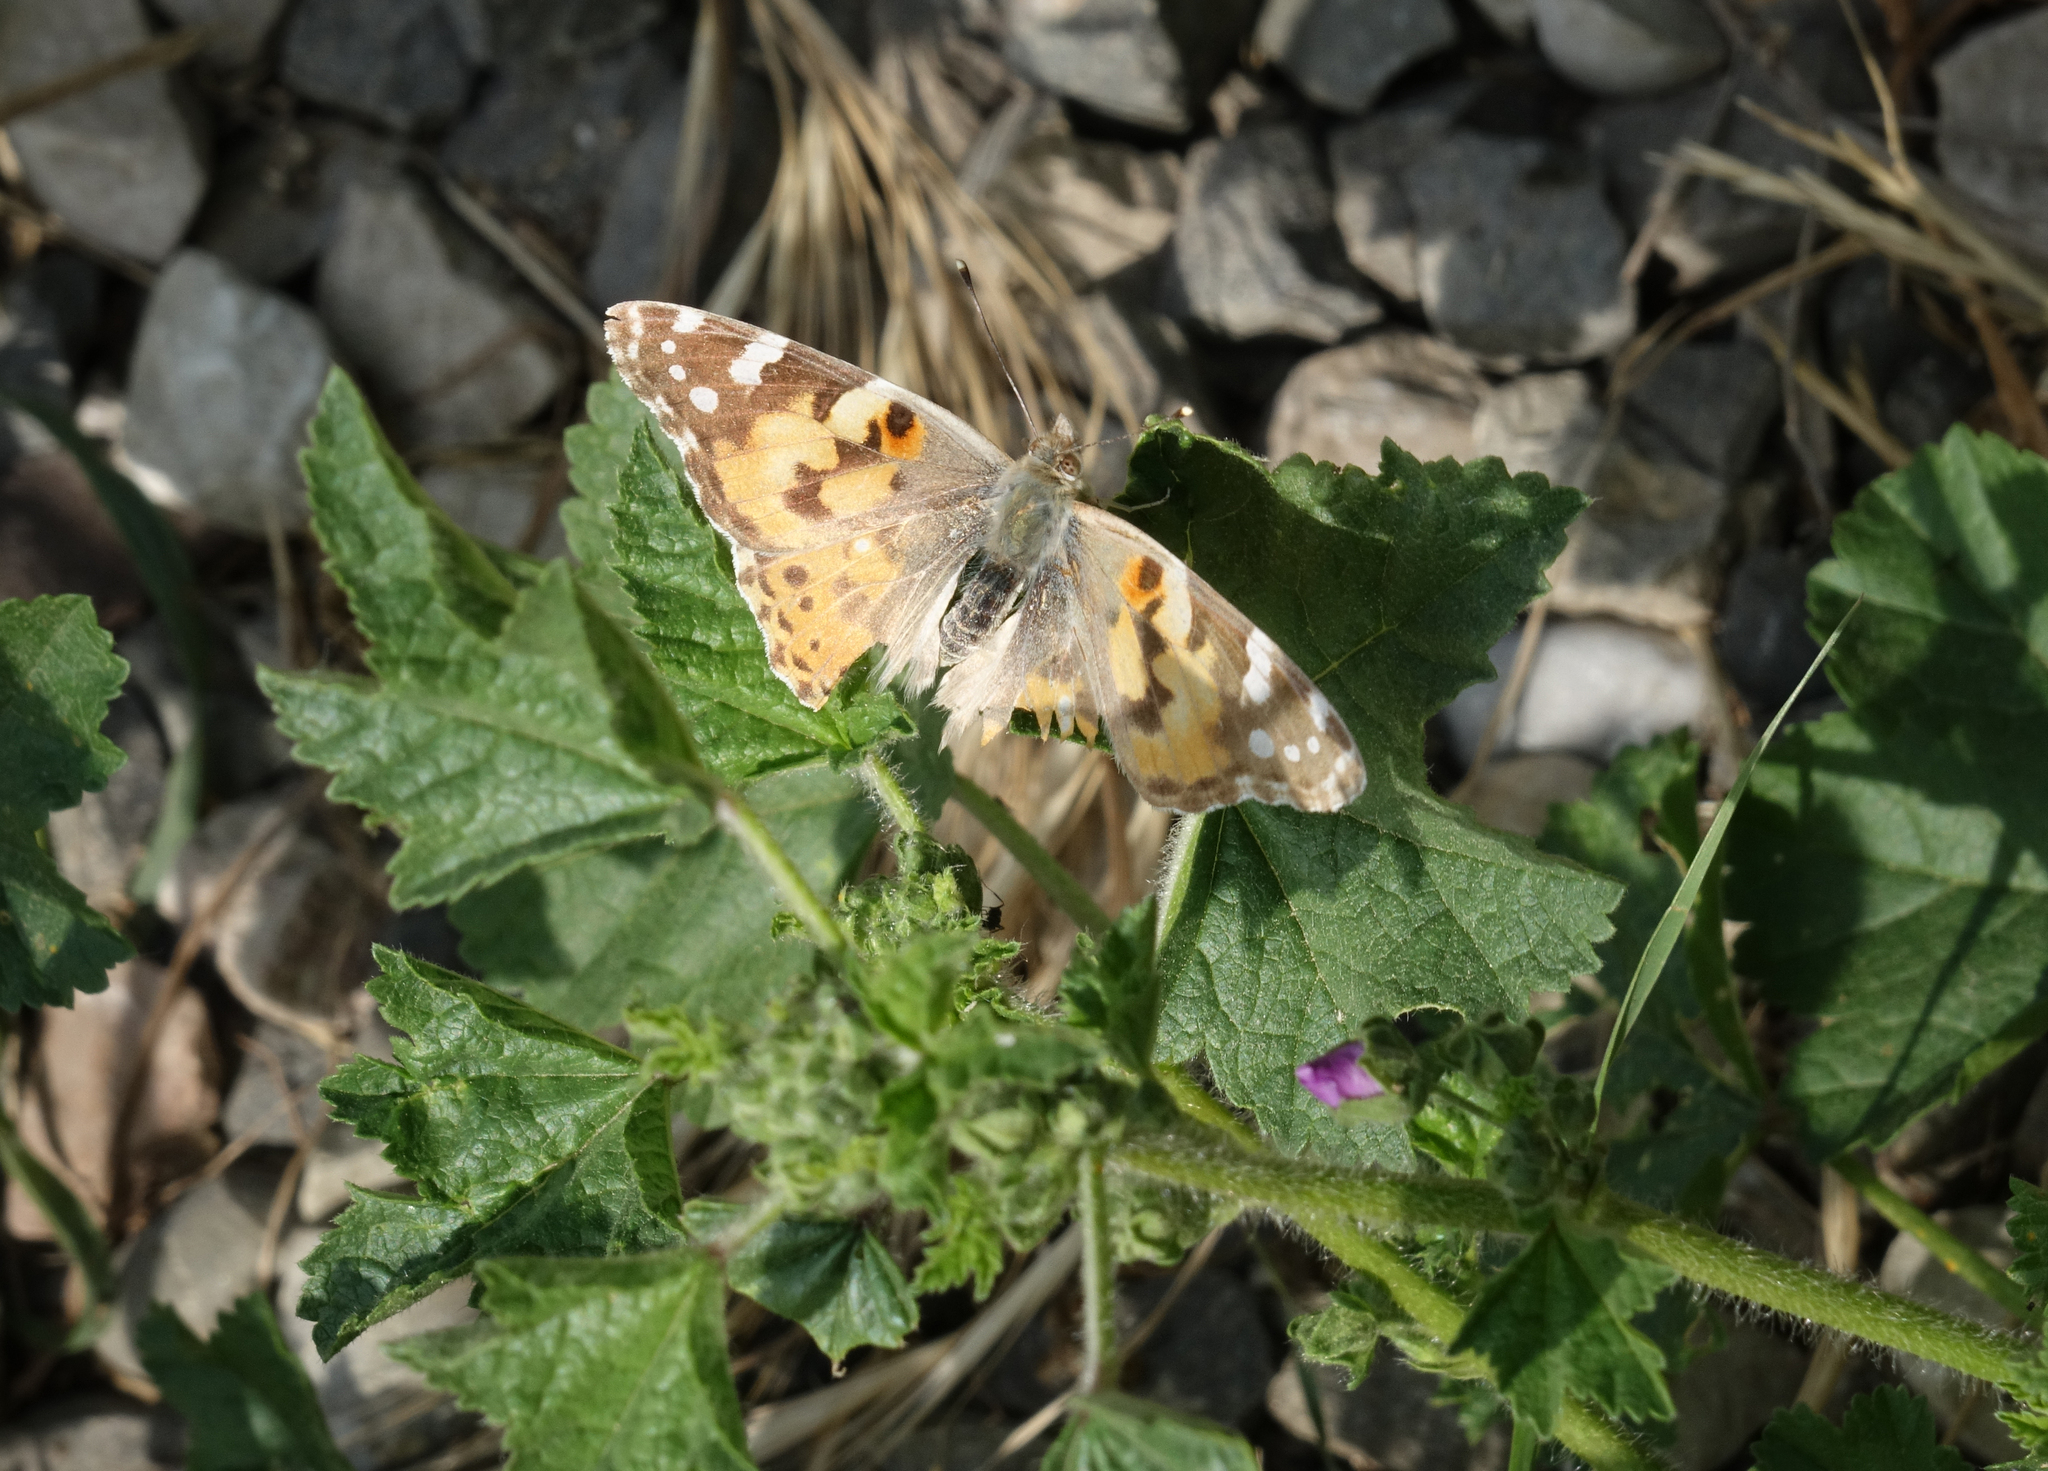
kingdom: Animalia
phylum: Arthropoda
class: Insecta
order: Lepidoptera
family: Nymphalidae
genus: Vanessa
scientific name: Vanessa cardui
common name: Painted lady
